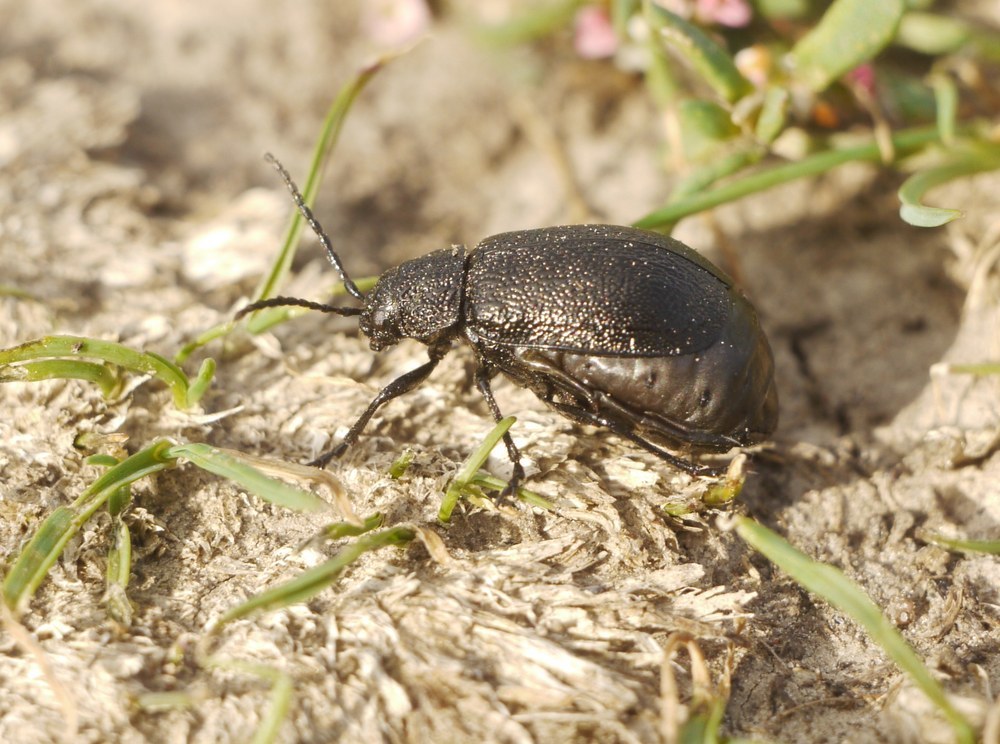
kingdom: Animalia
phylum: Arthropoda
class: Insecta
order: Coleoptera
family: Chrysomelidae
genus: Galeruca
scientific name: Galeruca tanaceti
